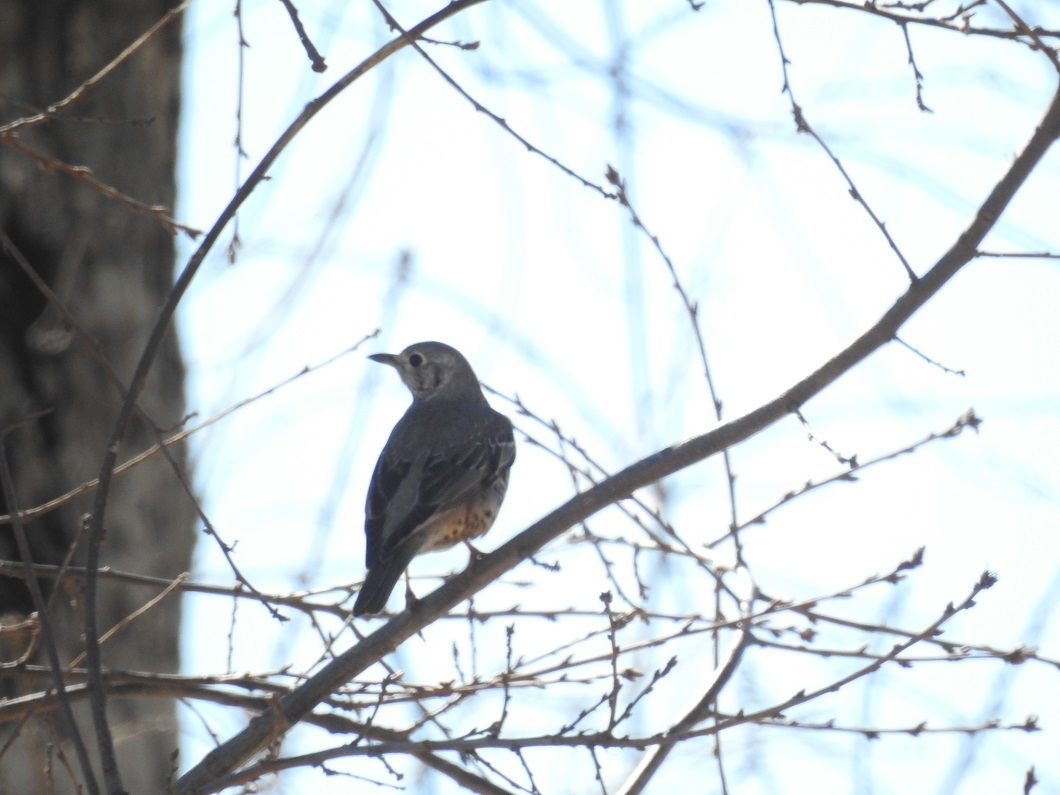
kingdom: Animalia
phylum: Chordata
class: Aves
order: Passeriformes
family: Turdidae
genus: Turdus
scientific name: Turdus viscivorus
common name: Mistle thrush
